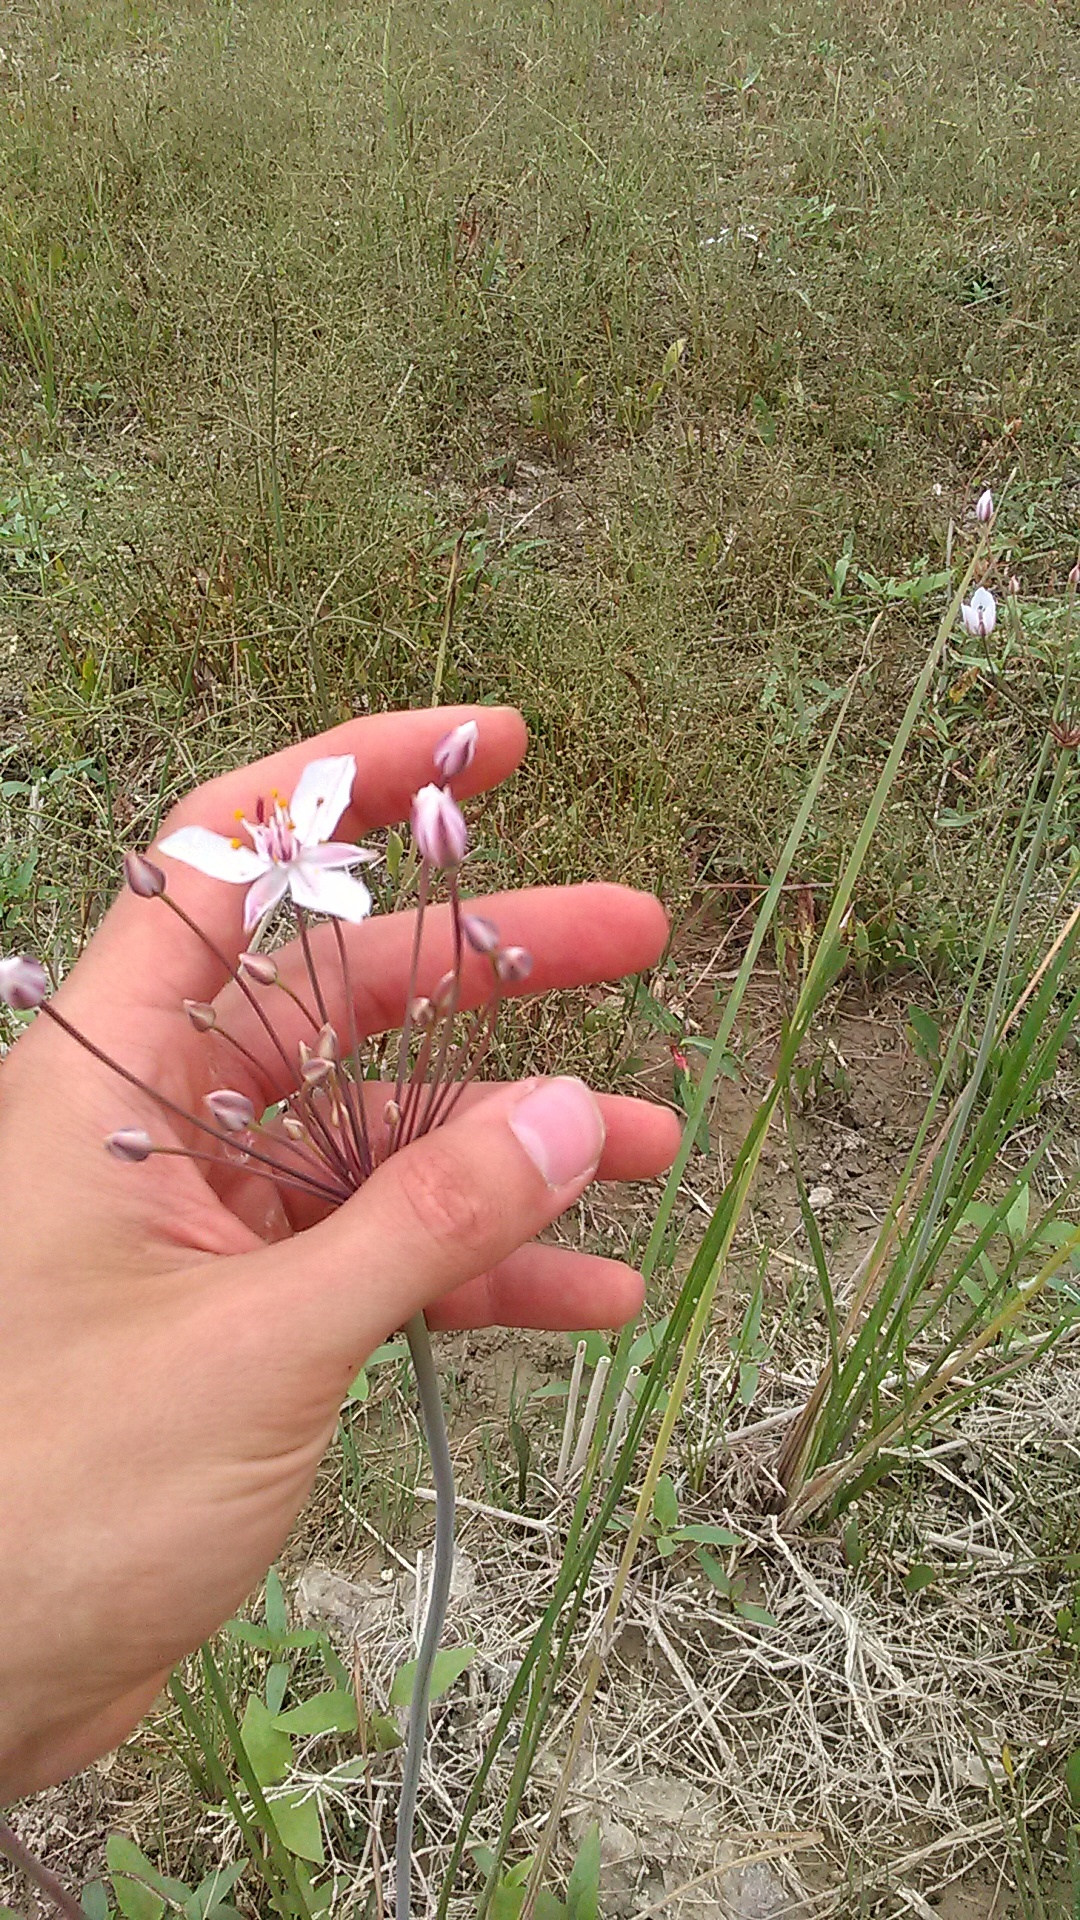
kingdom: Plantae
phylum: Tracheophyta
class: Liliopsida
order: Alismatales
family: Butomaceae
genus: Butomus
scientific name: Butomus umbellatus
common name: Flowering-rush
